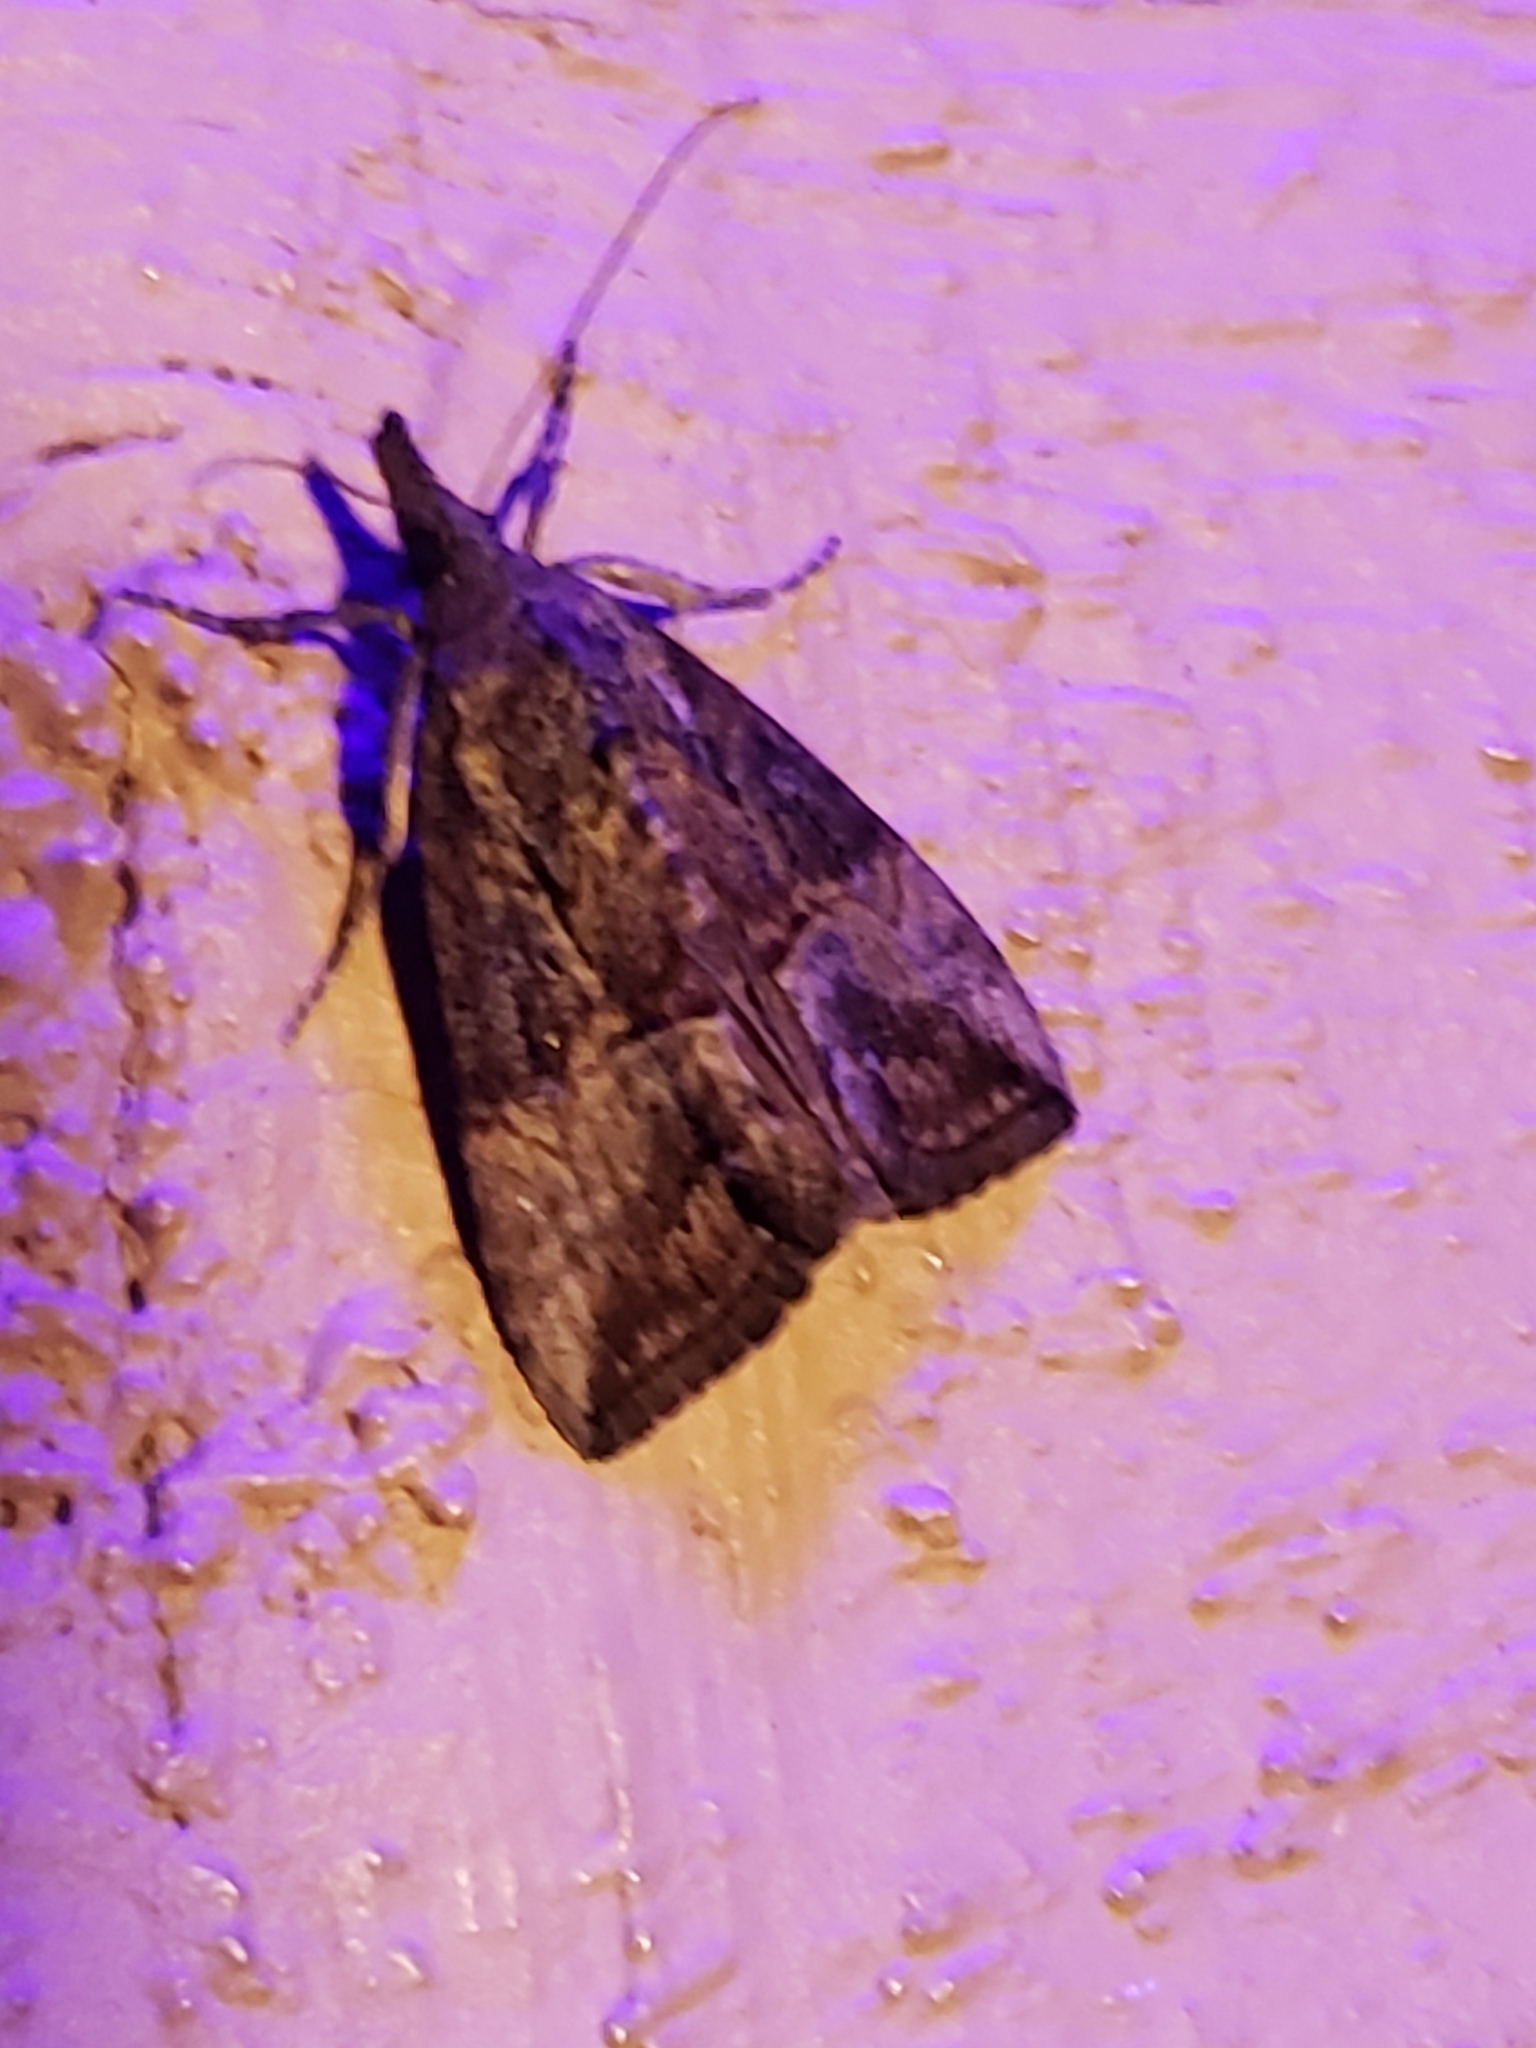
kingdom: Animalia
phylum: Arthropoda
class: Insecta
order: Lepidoptera
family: Erebidae
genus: Hypena
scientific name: Hypena scabra
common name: Green cloverworm
